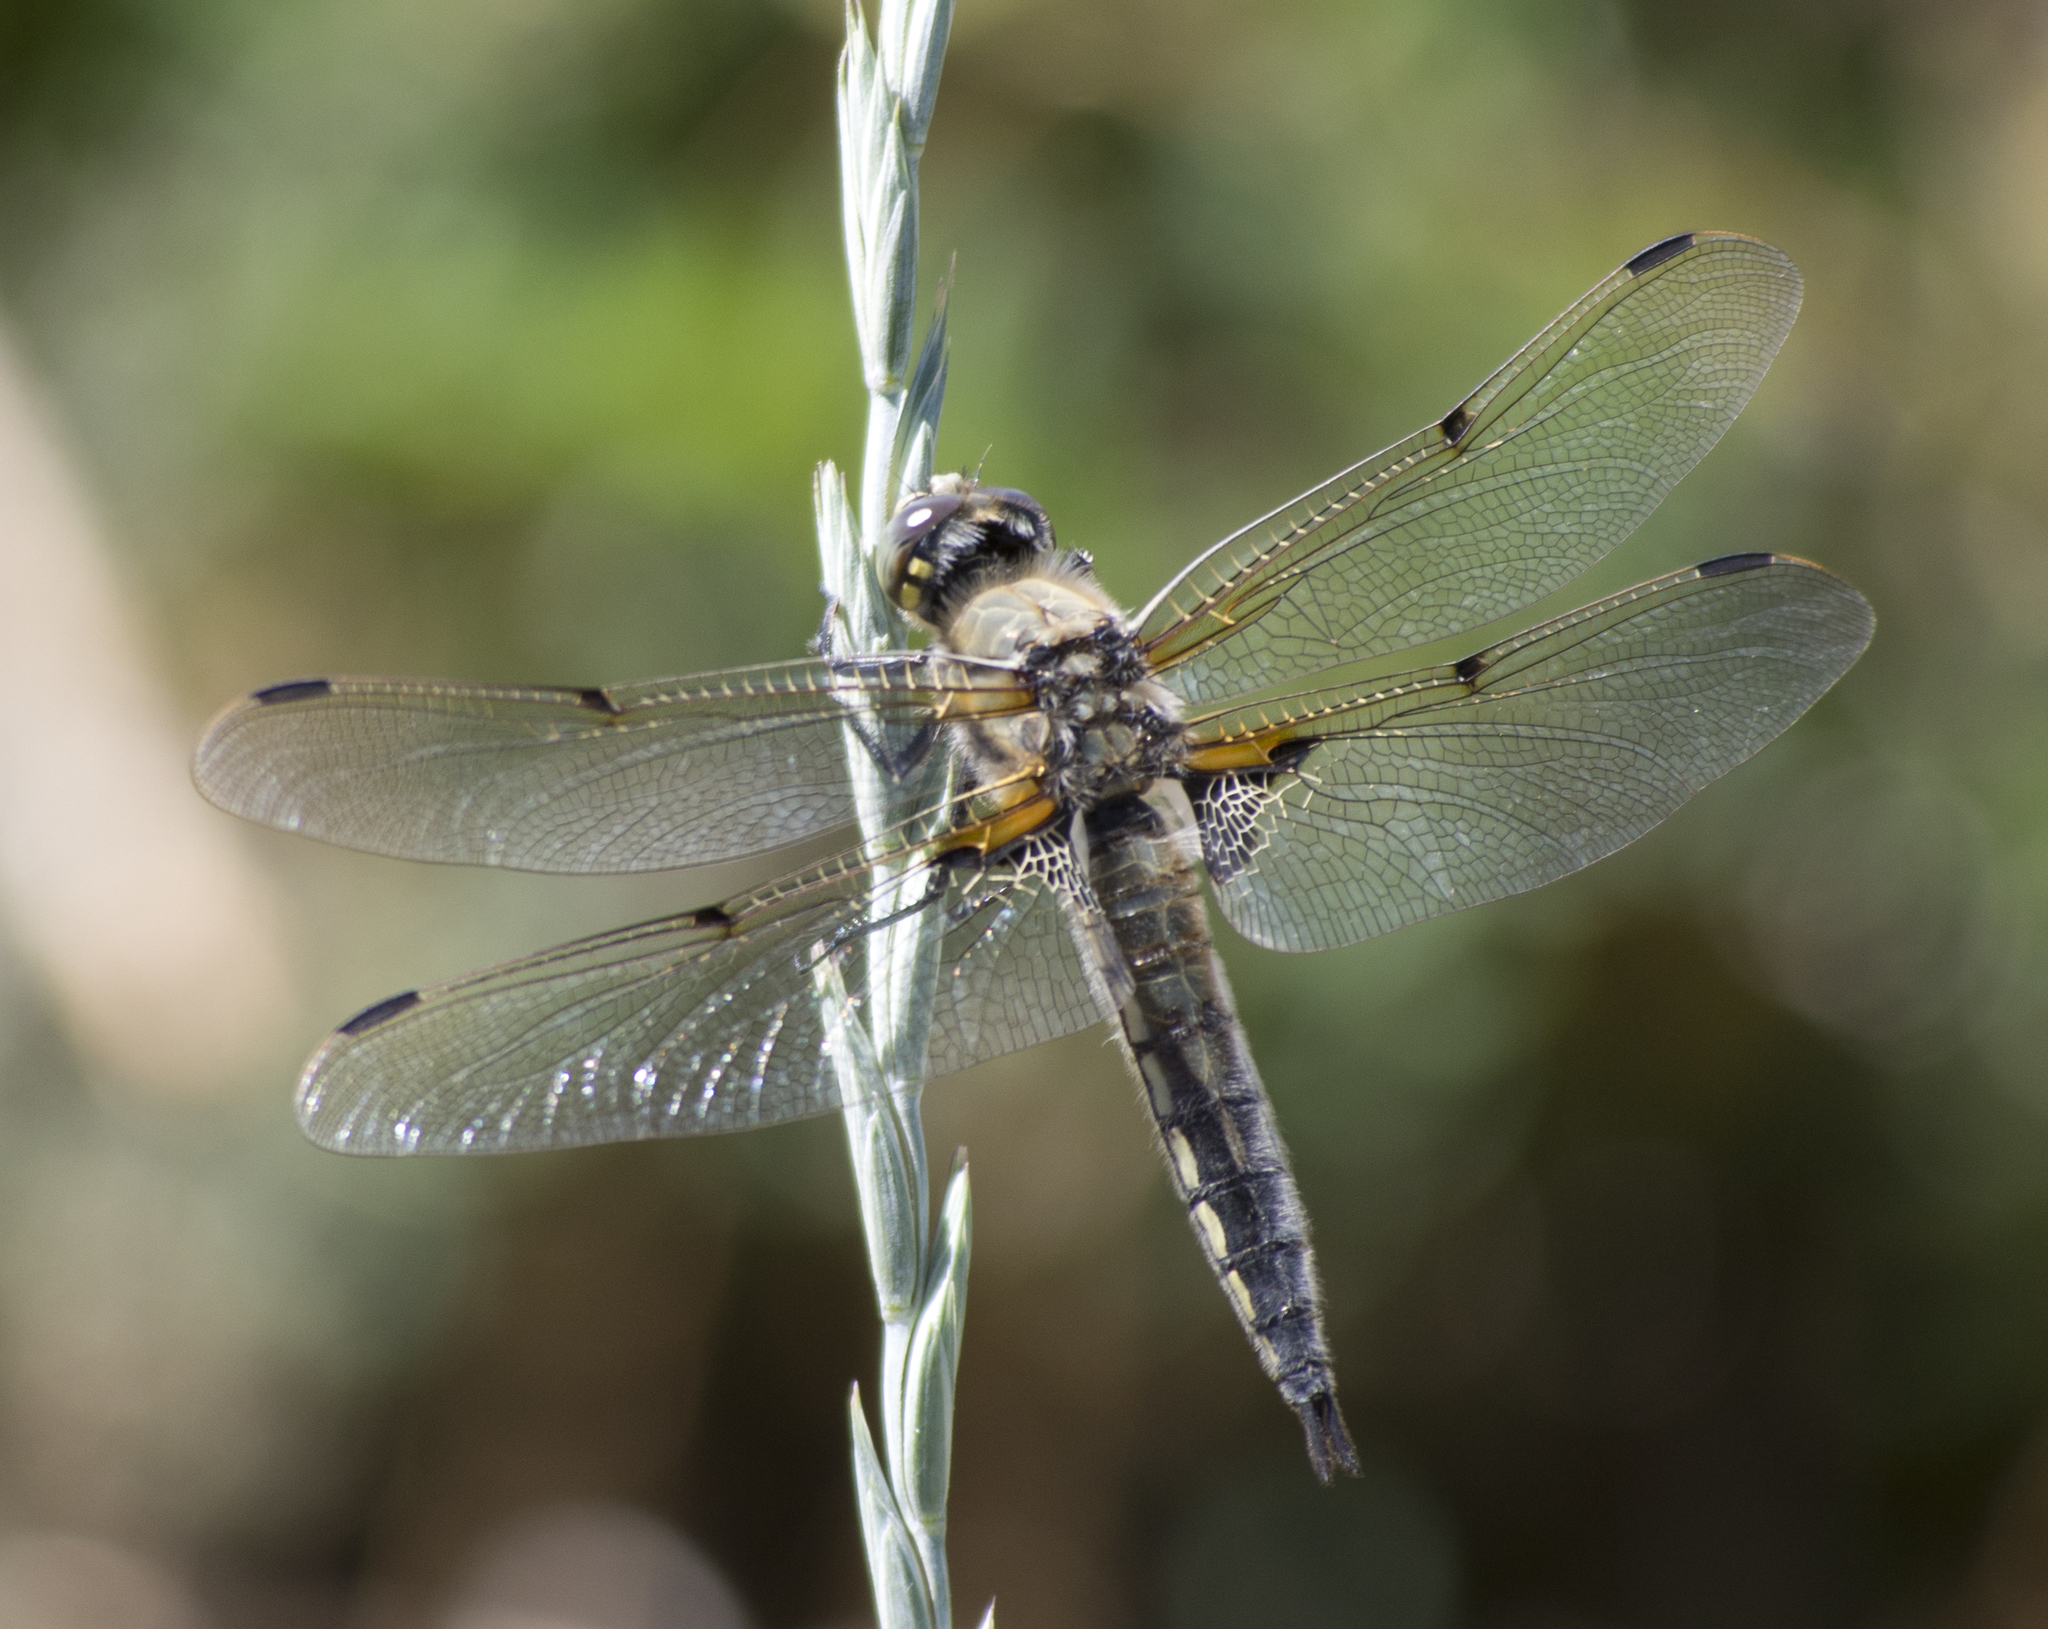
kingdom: Animalia
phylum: Arthropoda
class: Insecta
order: Odonata
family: Libellulidae
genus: Libellula
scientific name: Libellula quadrimaculata
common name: Four-spotted chaser
